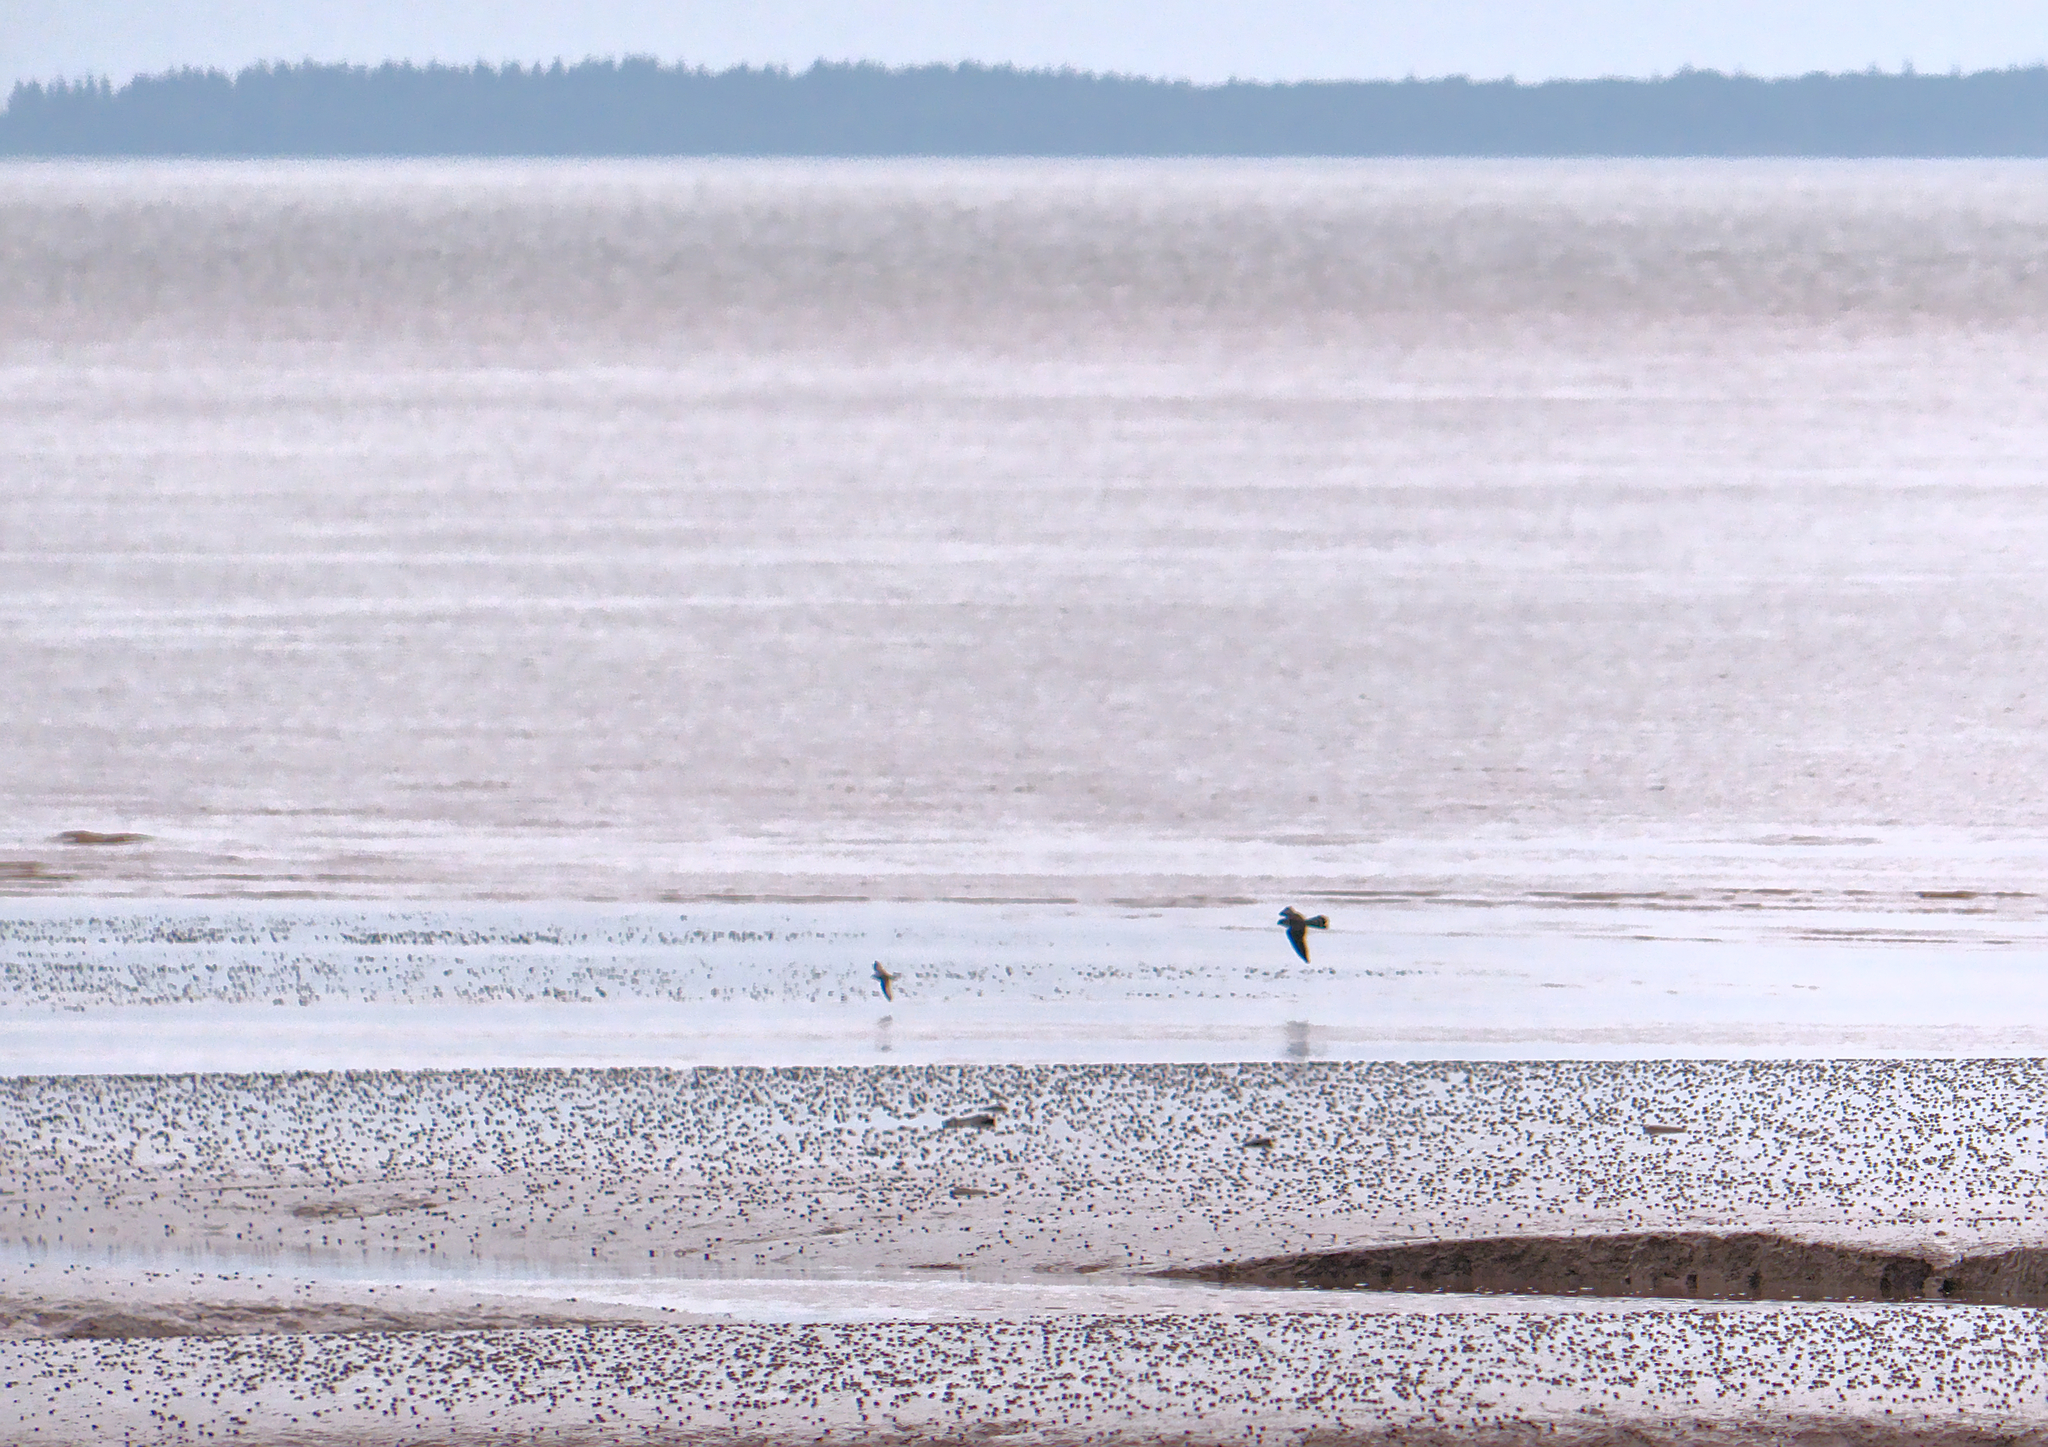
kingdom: Animalia
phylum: Chordata
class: Aves
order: Falconiformes
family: Falconidae
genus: Falco
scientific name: Falco peregrinus
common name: Peregrine falcon
